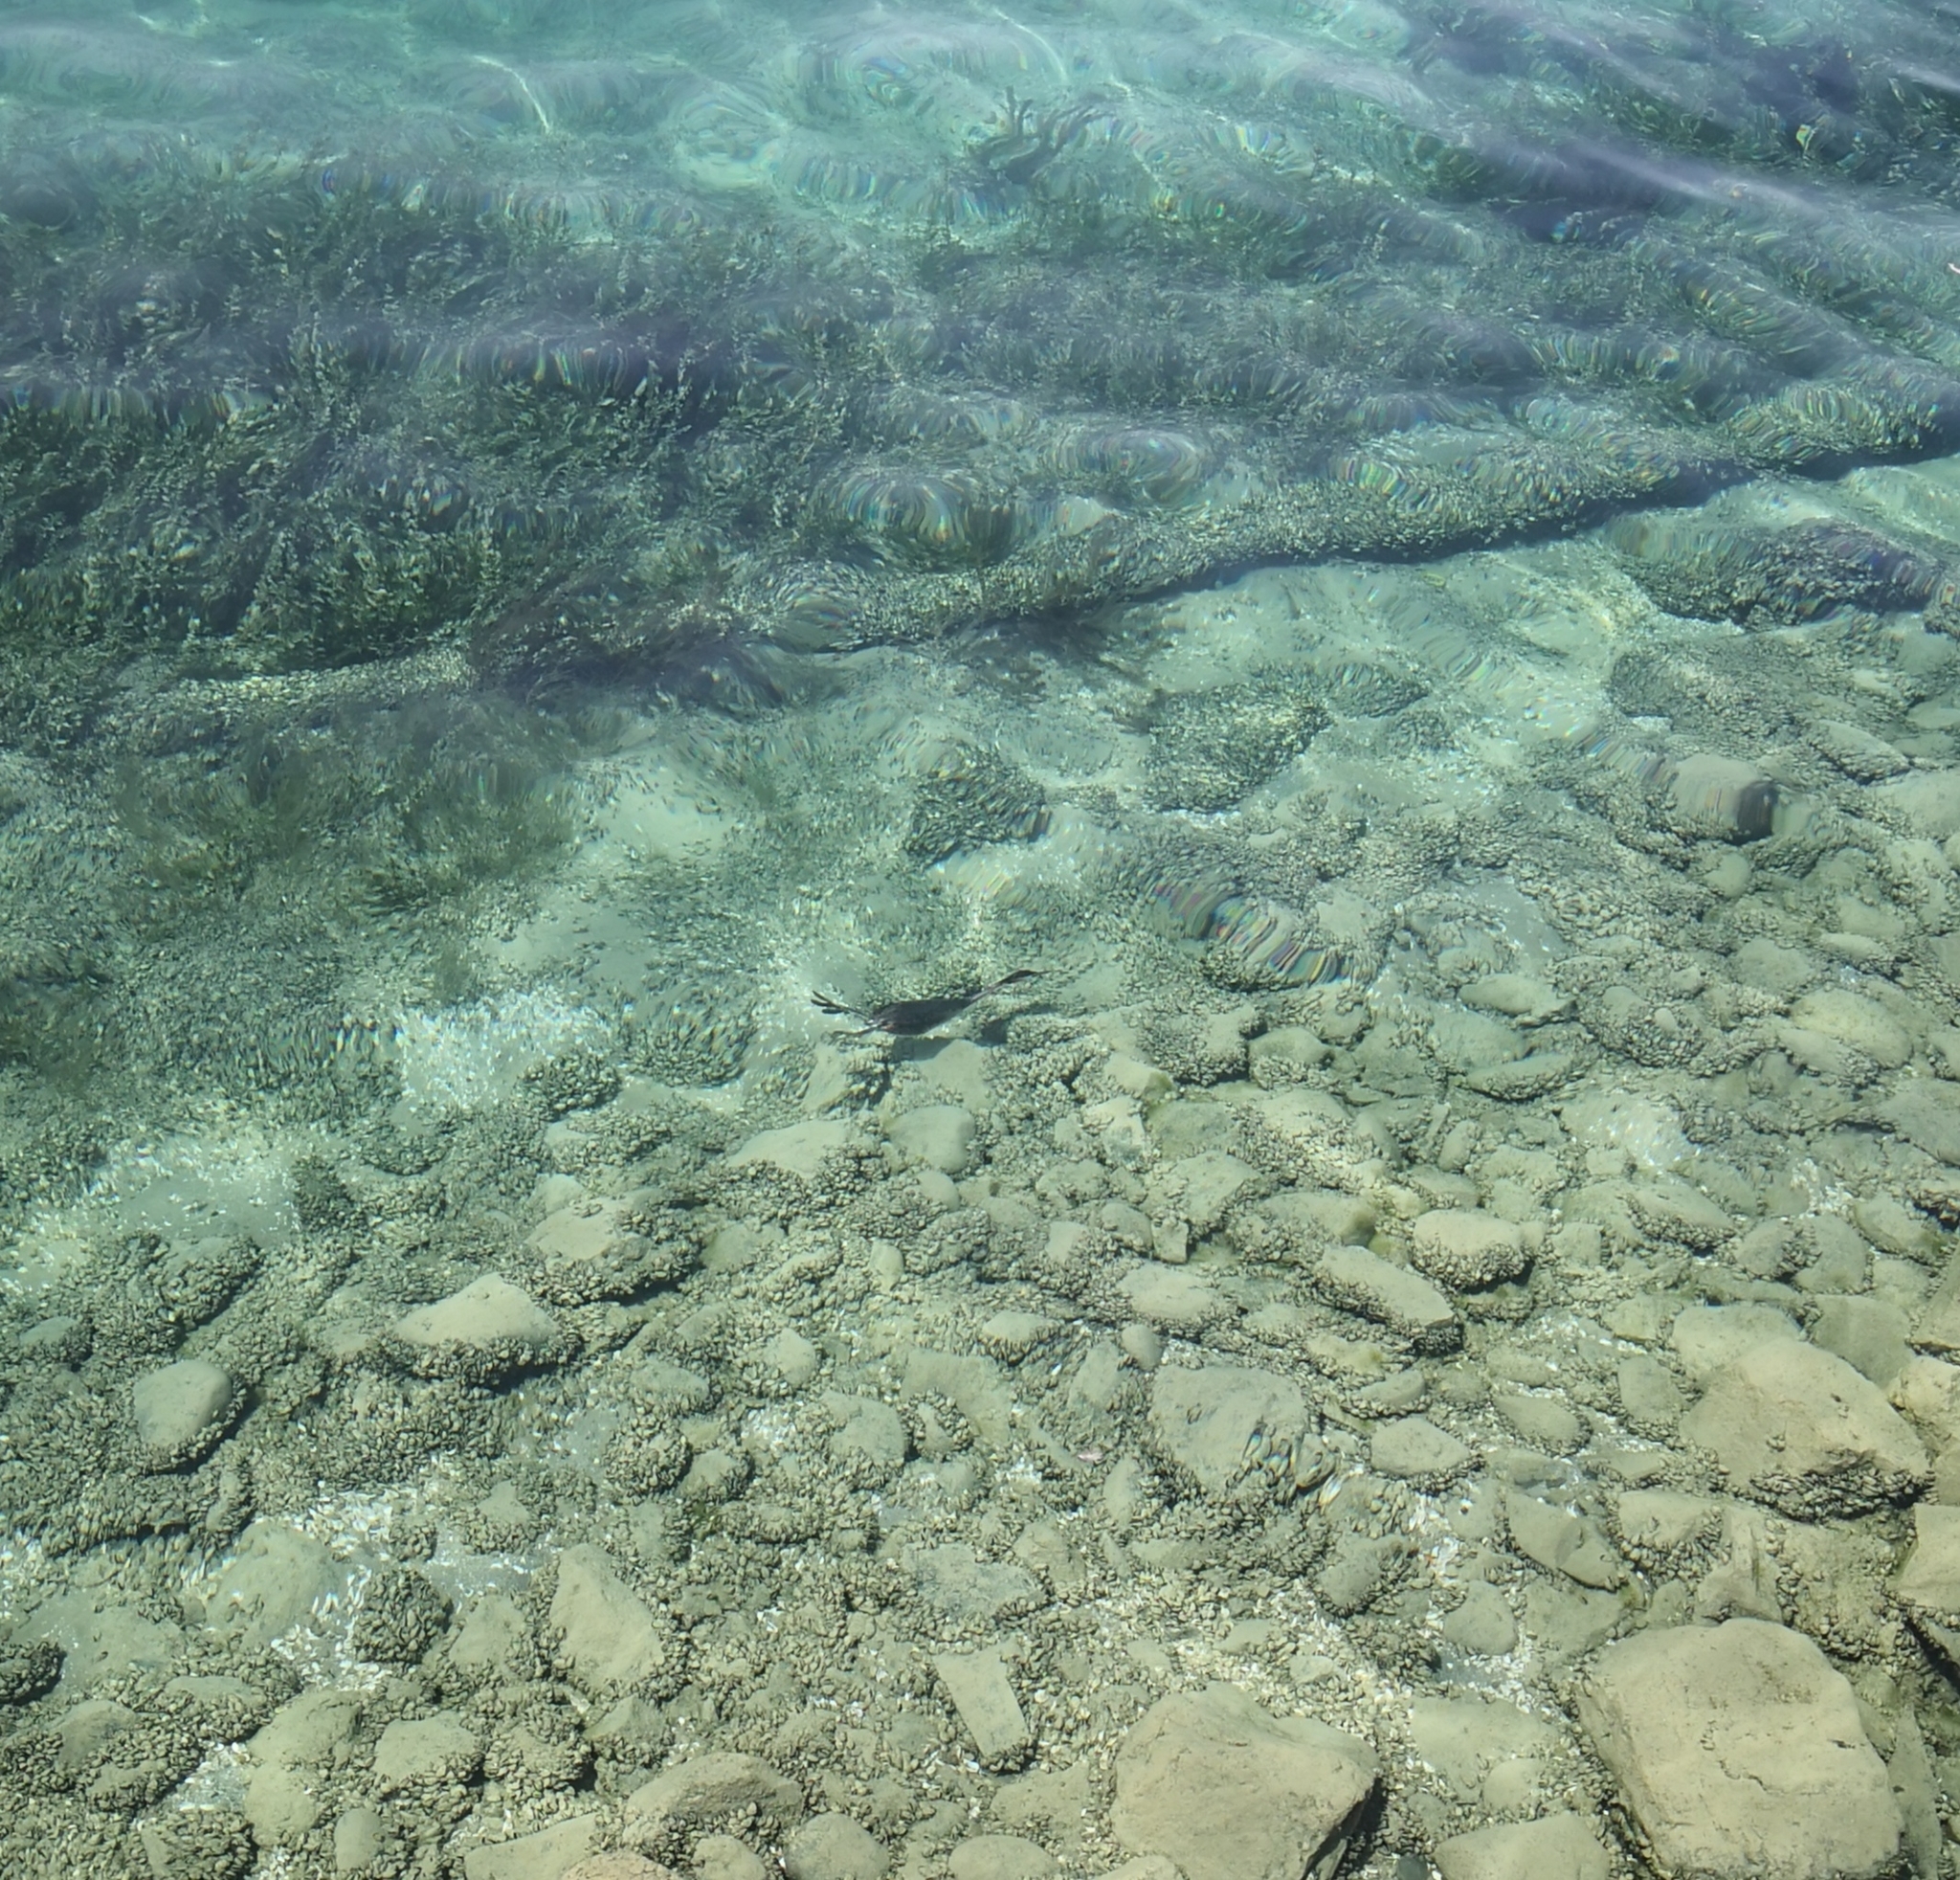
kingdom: Animalia
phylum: Chordata
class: Aves
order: Podicipediformes
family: Podicipedidae
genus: Podiceps
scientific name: Podiceps cristatus
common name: Great crested grebe
